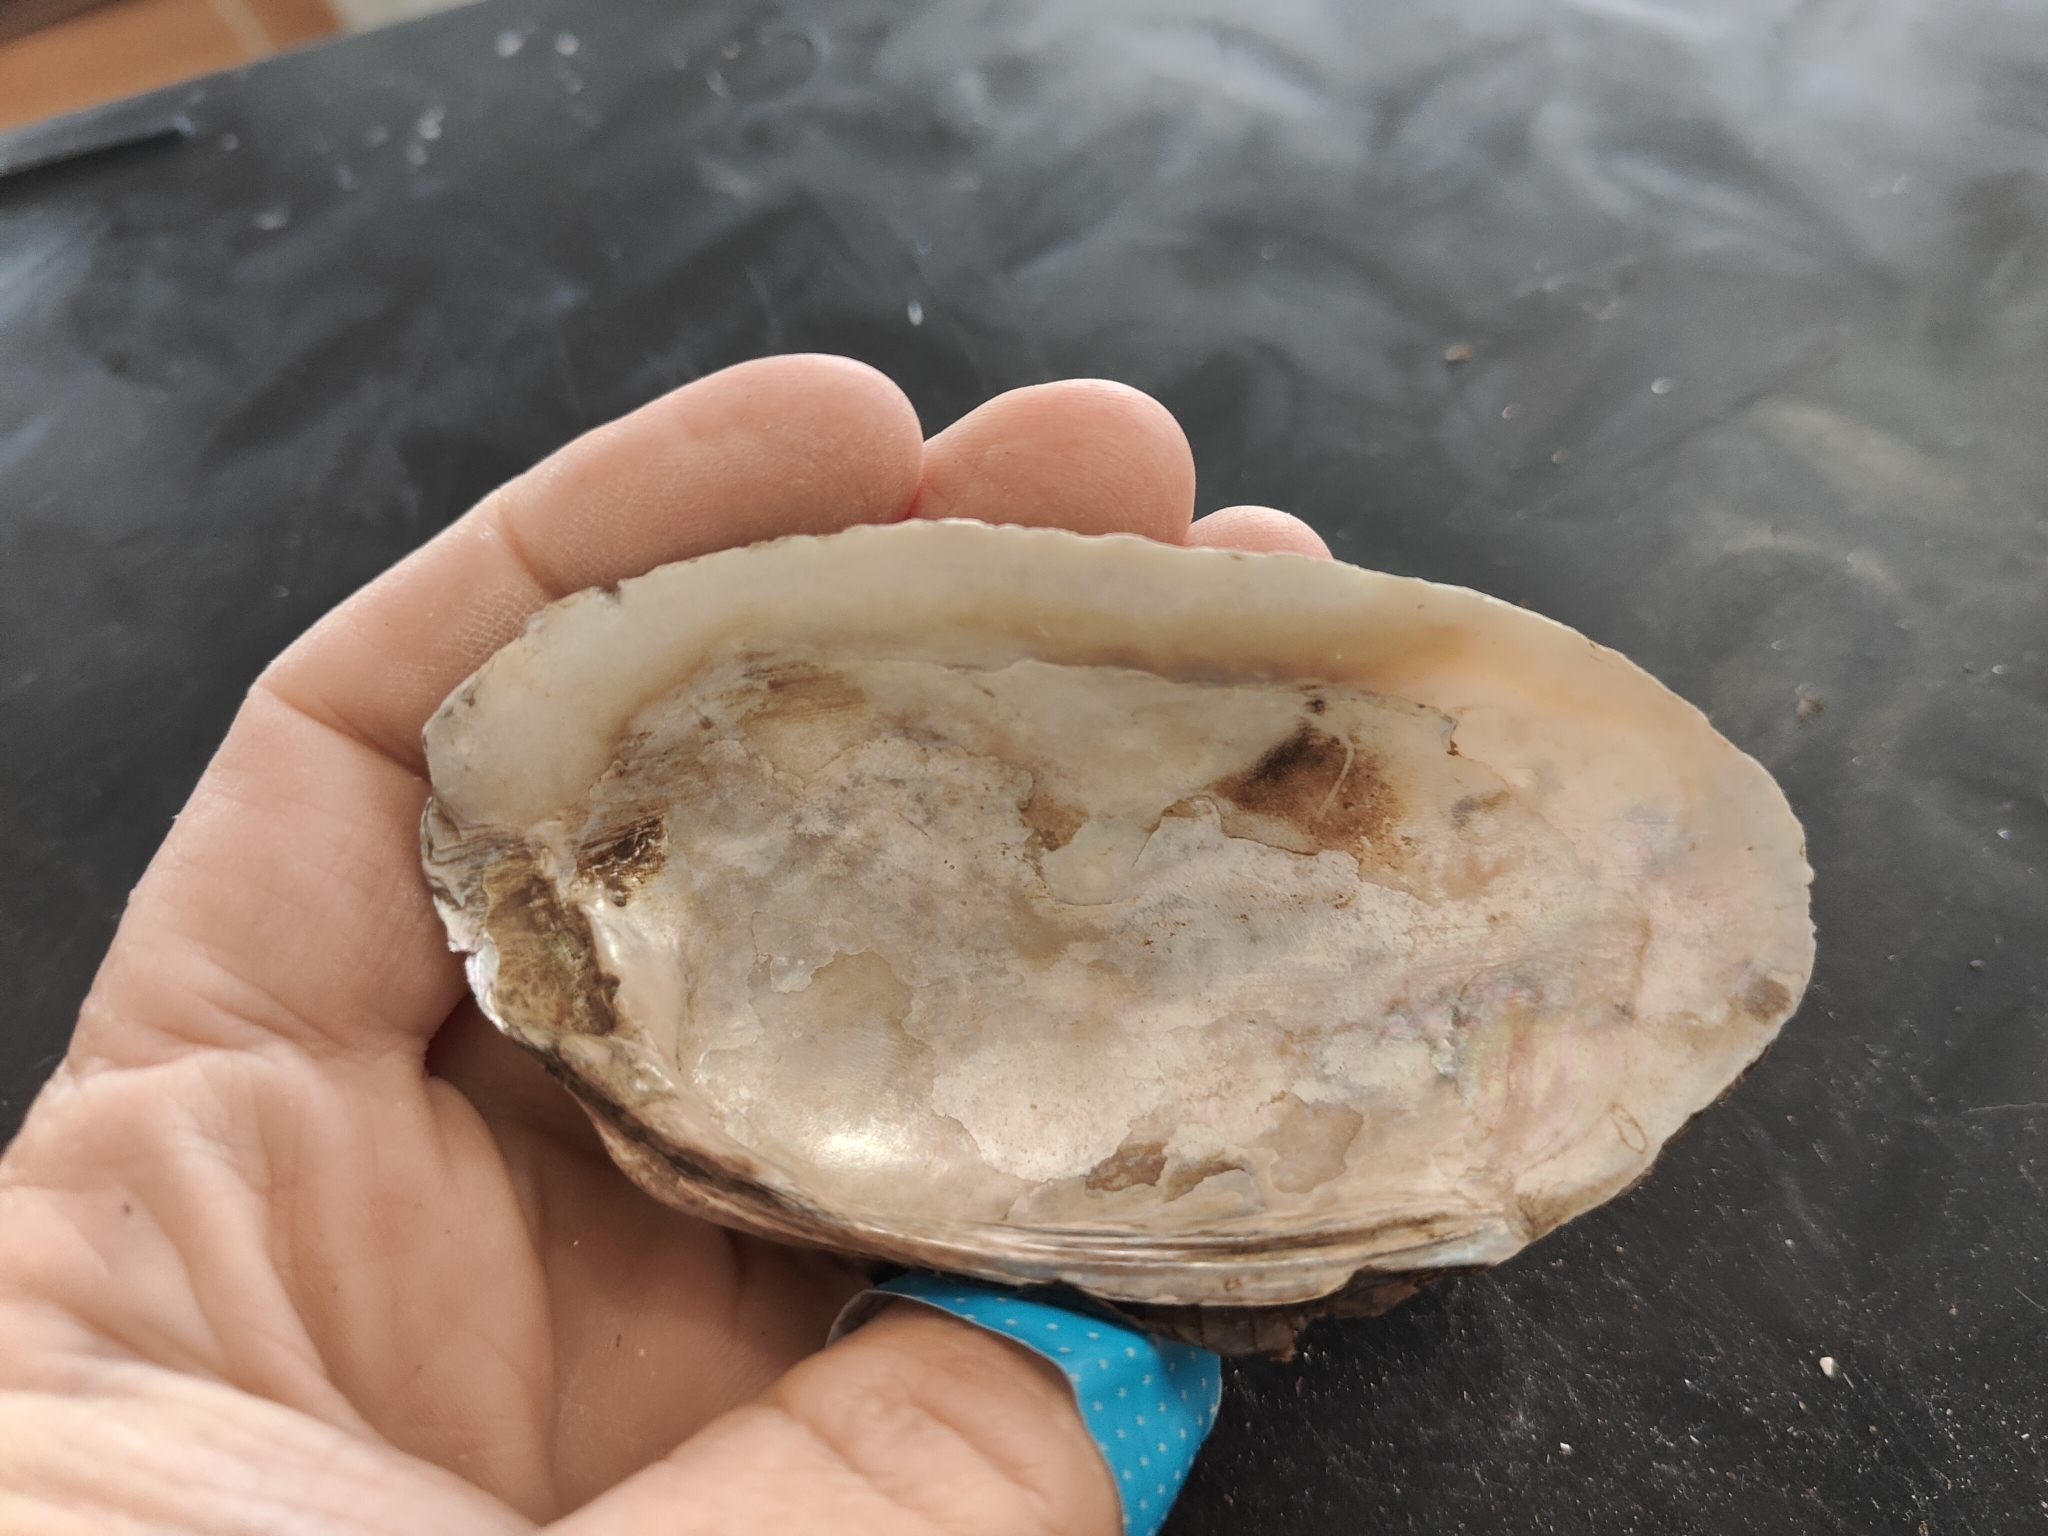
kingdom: Animalia
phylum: Mollusca
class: Bivalvia
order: Unionida
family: Unionidae
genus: Lampsilis
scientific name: Lampsilis siliquoidea
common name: Fatmucket
